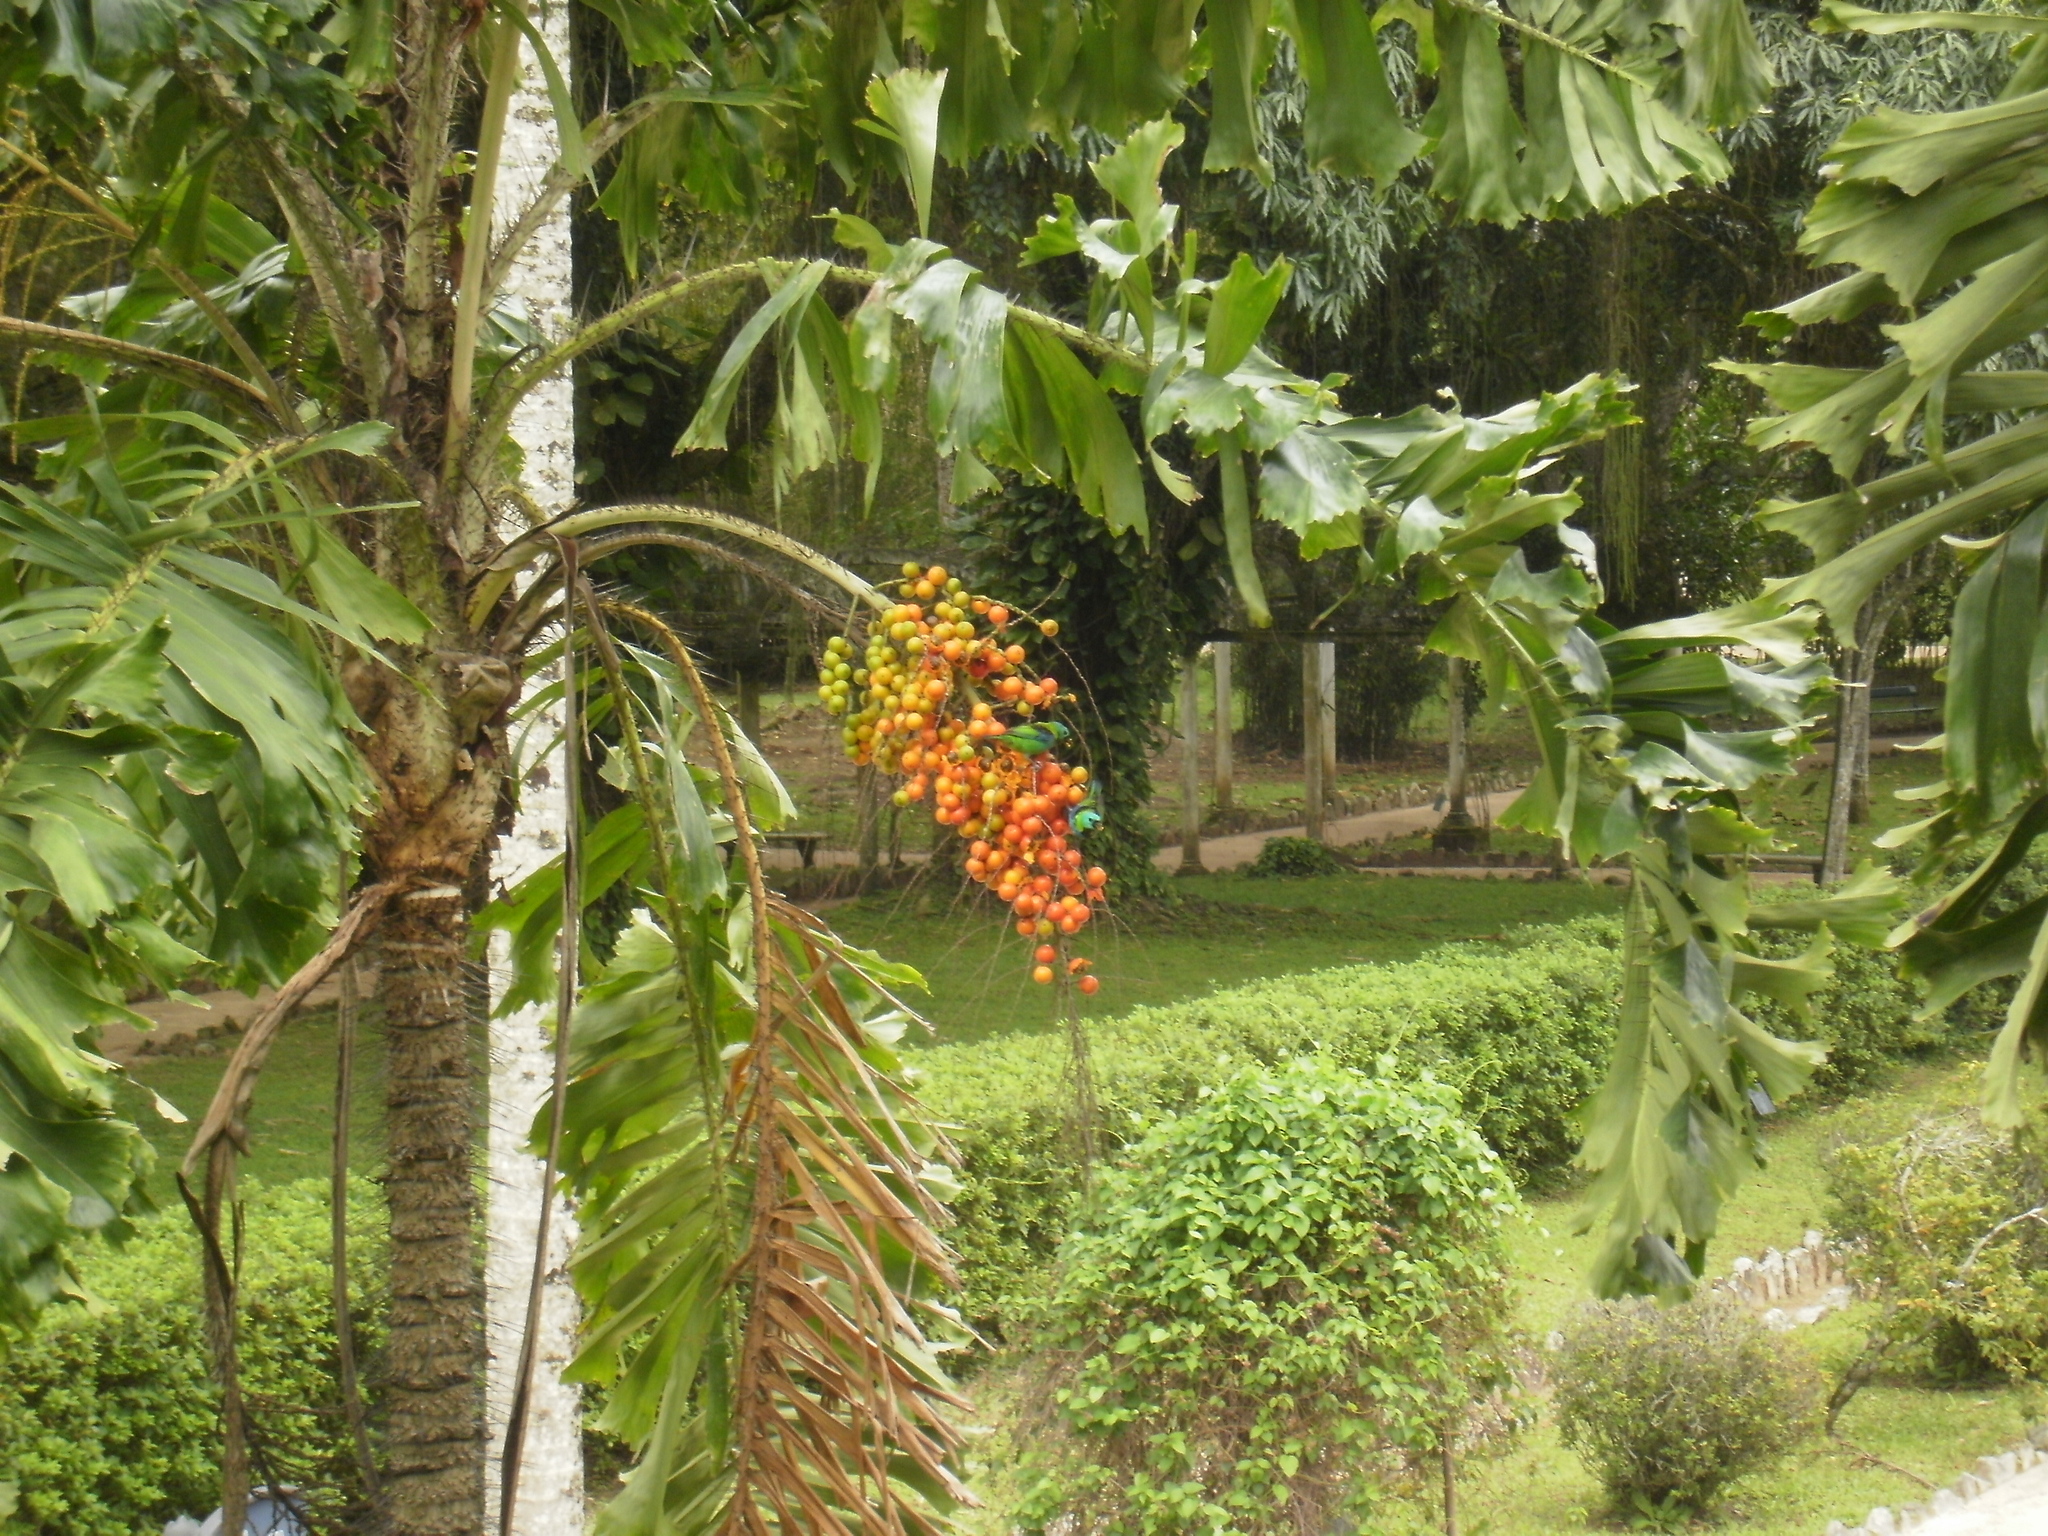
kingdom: Animalia
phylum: Chordata
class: Aves
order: Passeriformes
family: Thraupidae
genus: Tangara
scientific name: Tangara seledon
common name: Green-headed tanager
